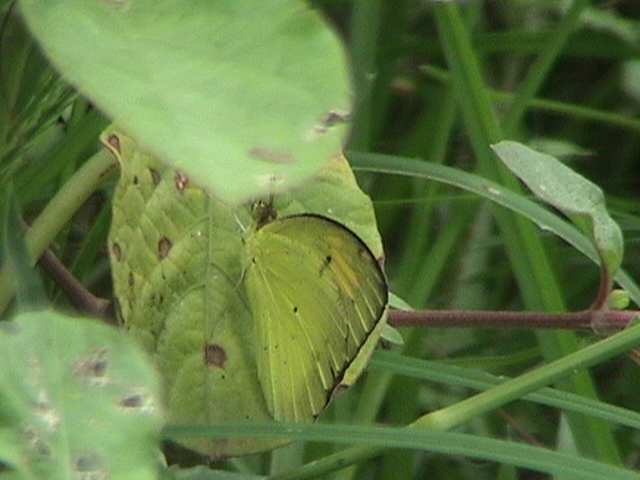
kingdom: Animalia
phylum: Arthropoda
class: Insecta
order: Lepidoptera
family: Pieridae
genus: Ixias
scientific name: Ixias pyrene
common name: Yellow orange tip
